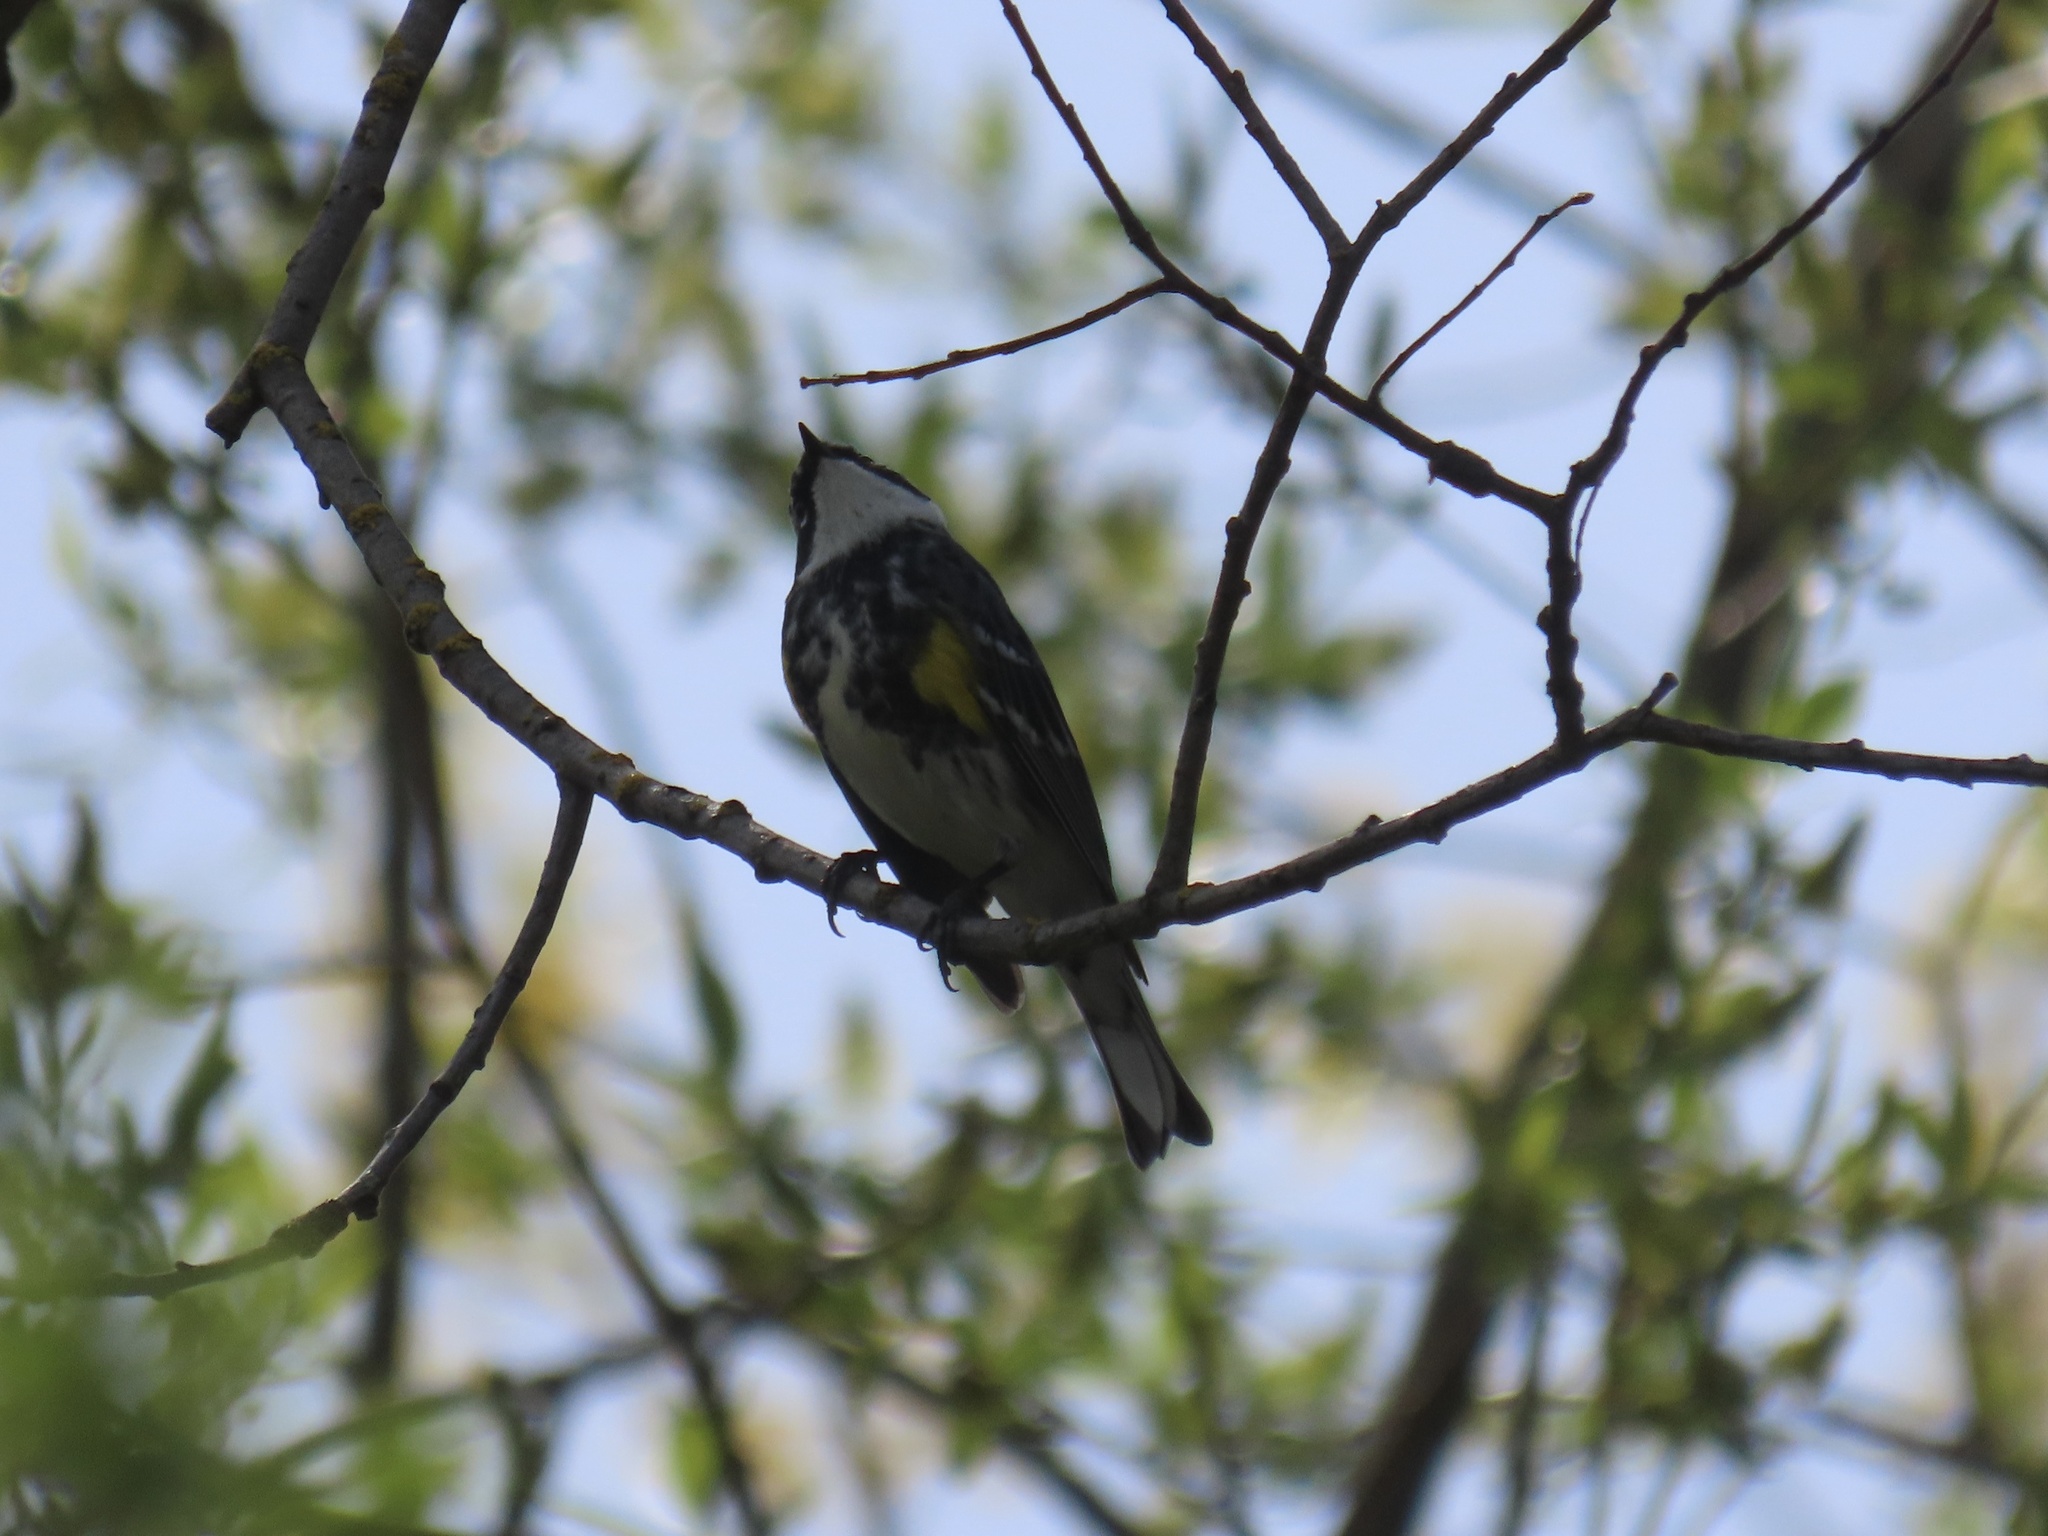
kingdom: Animalia
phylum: Chordata
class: Aves
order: Passeriformes
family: Parulidae
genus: Setophaga
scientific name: Setophaga coronata
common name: Myrtle warbler
